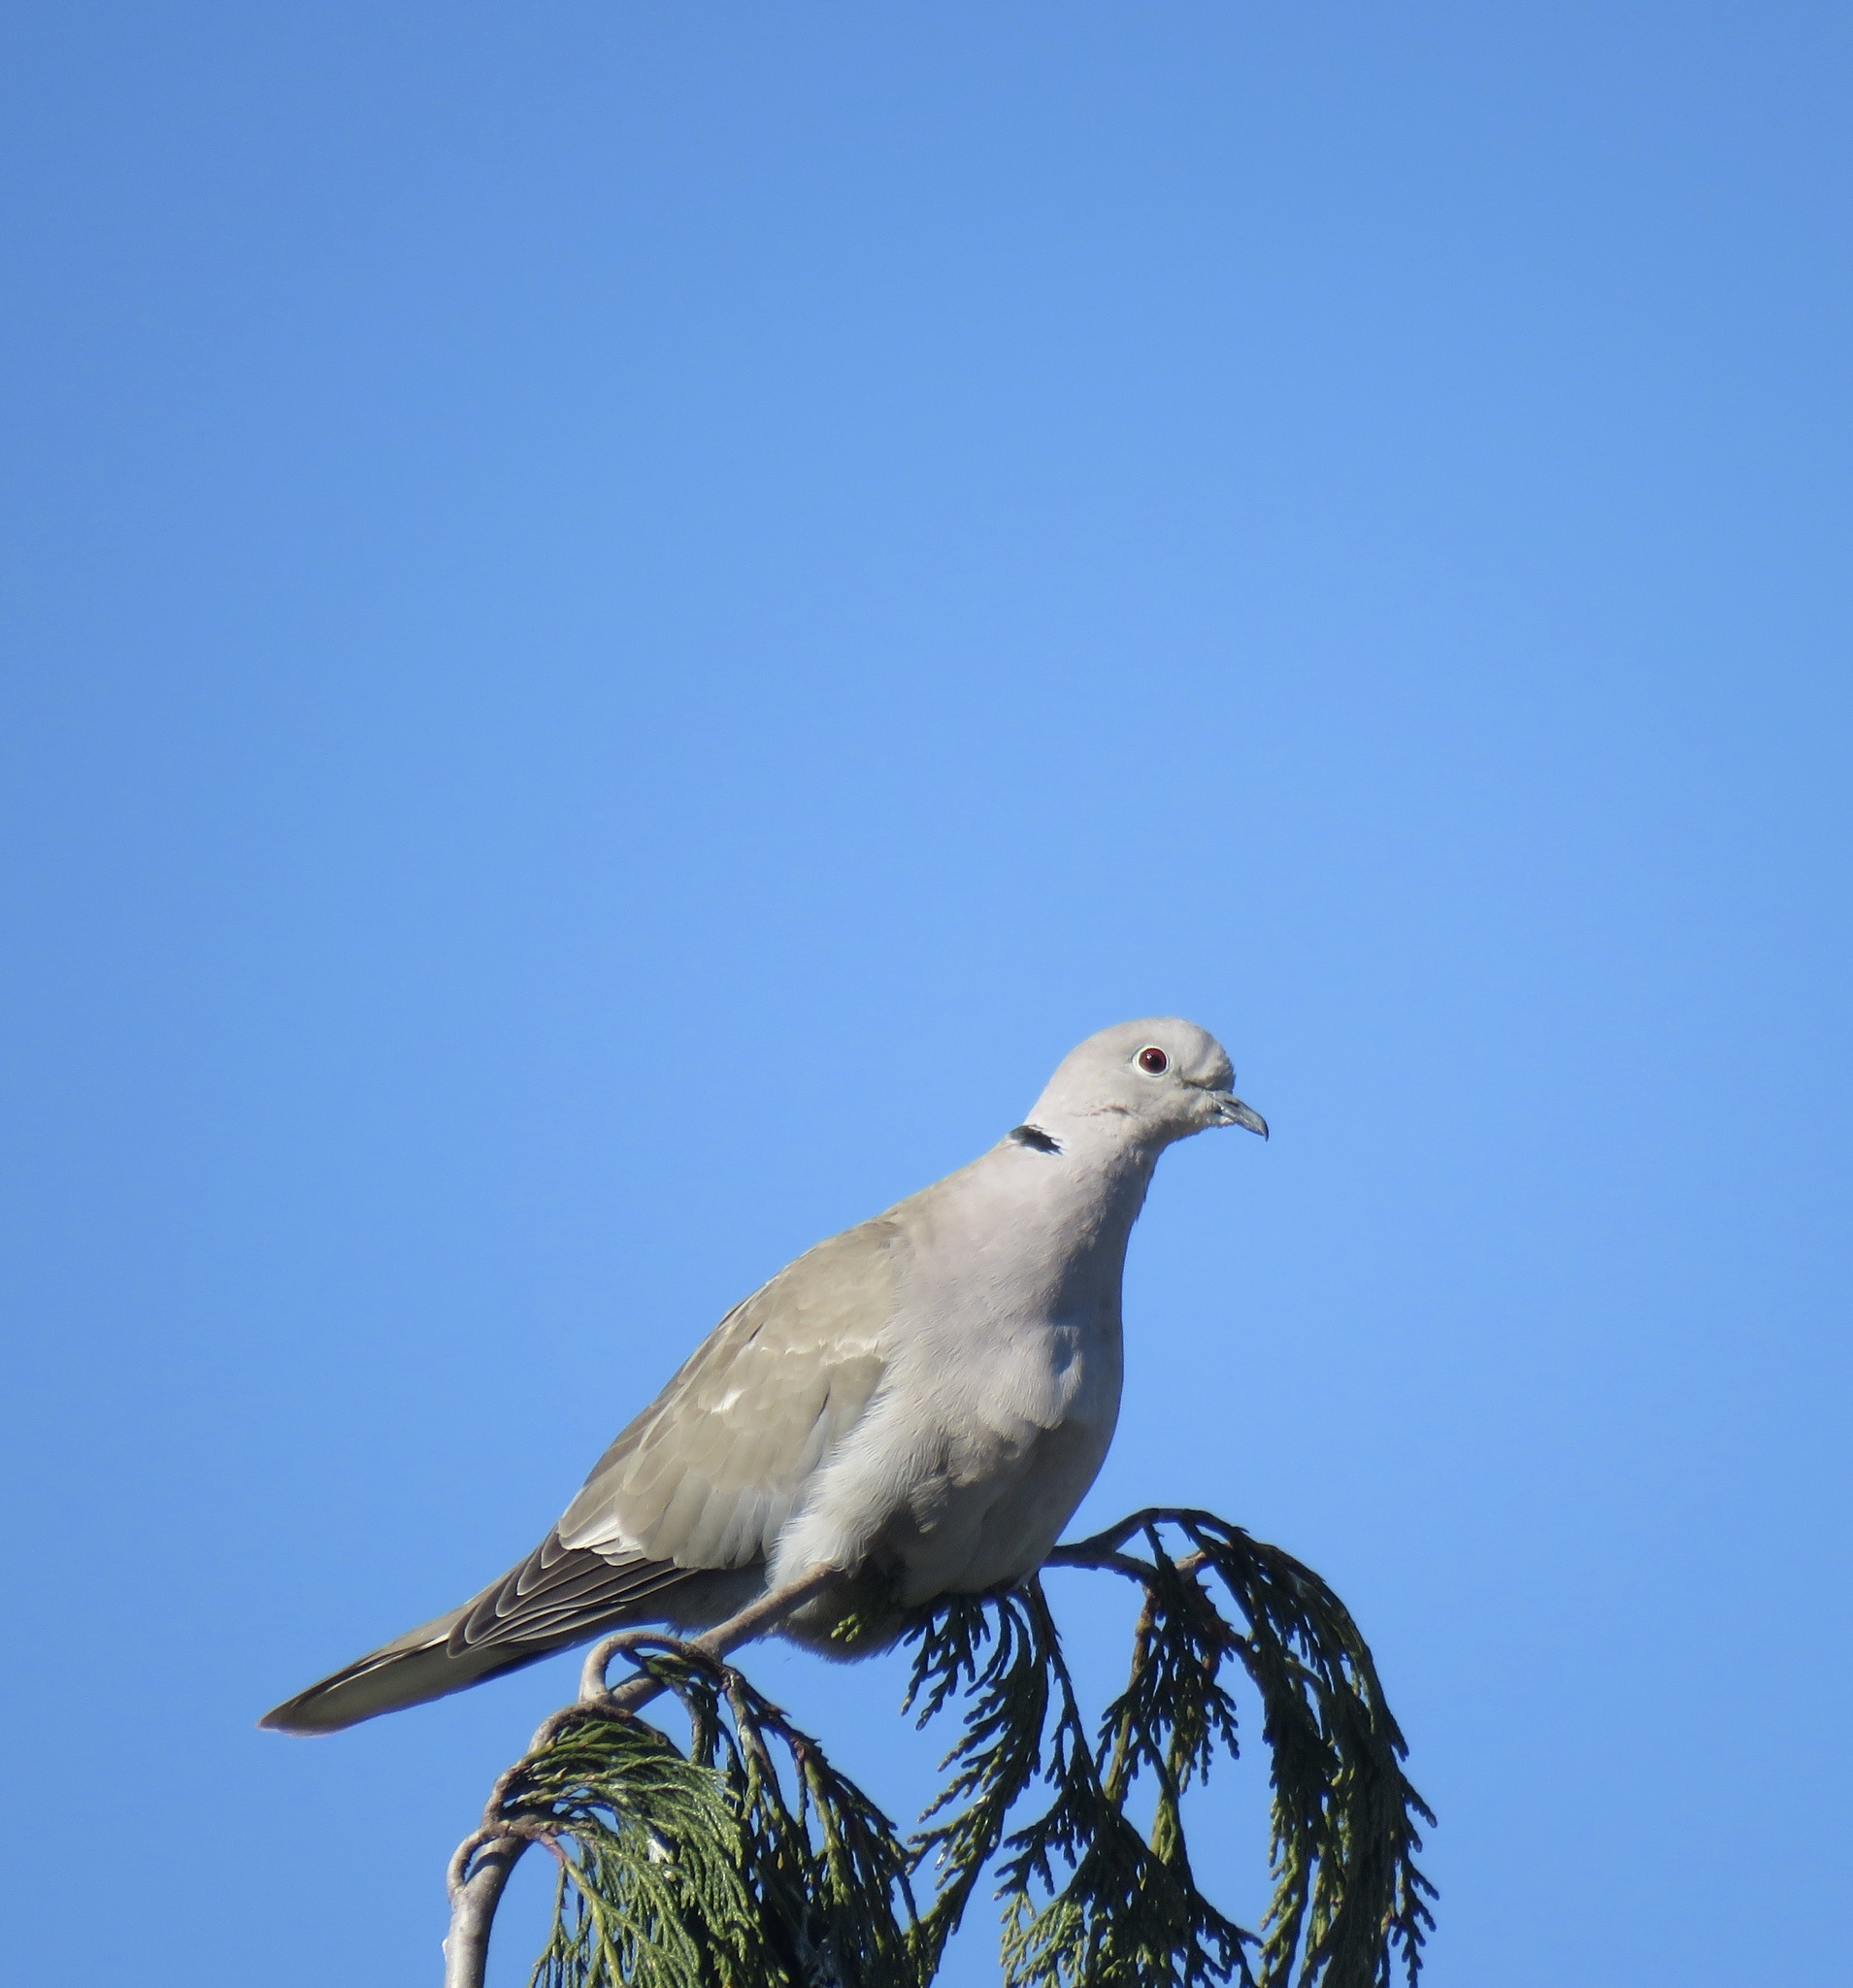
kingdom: Animalia
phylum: Chordata
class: Aves
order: Columbiformes
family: Columbidae
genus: Streptopelia
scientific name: Streptopelia decaocto
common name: Eurasian collared dove
